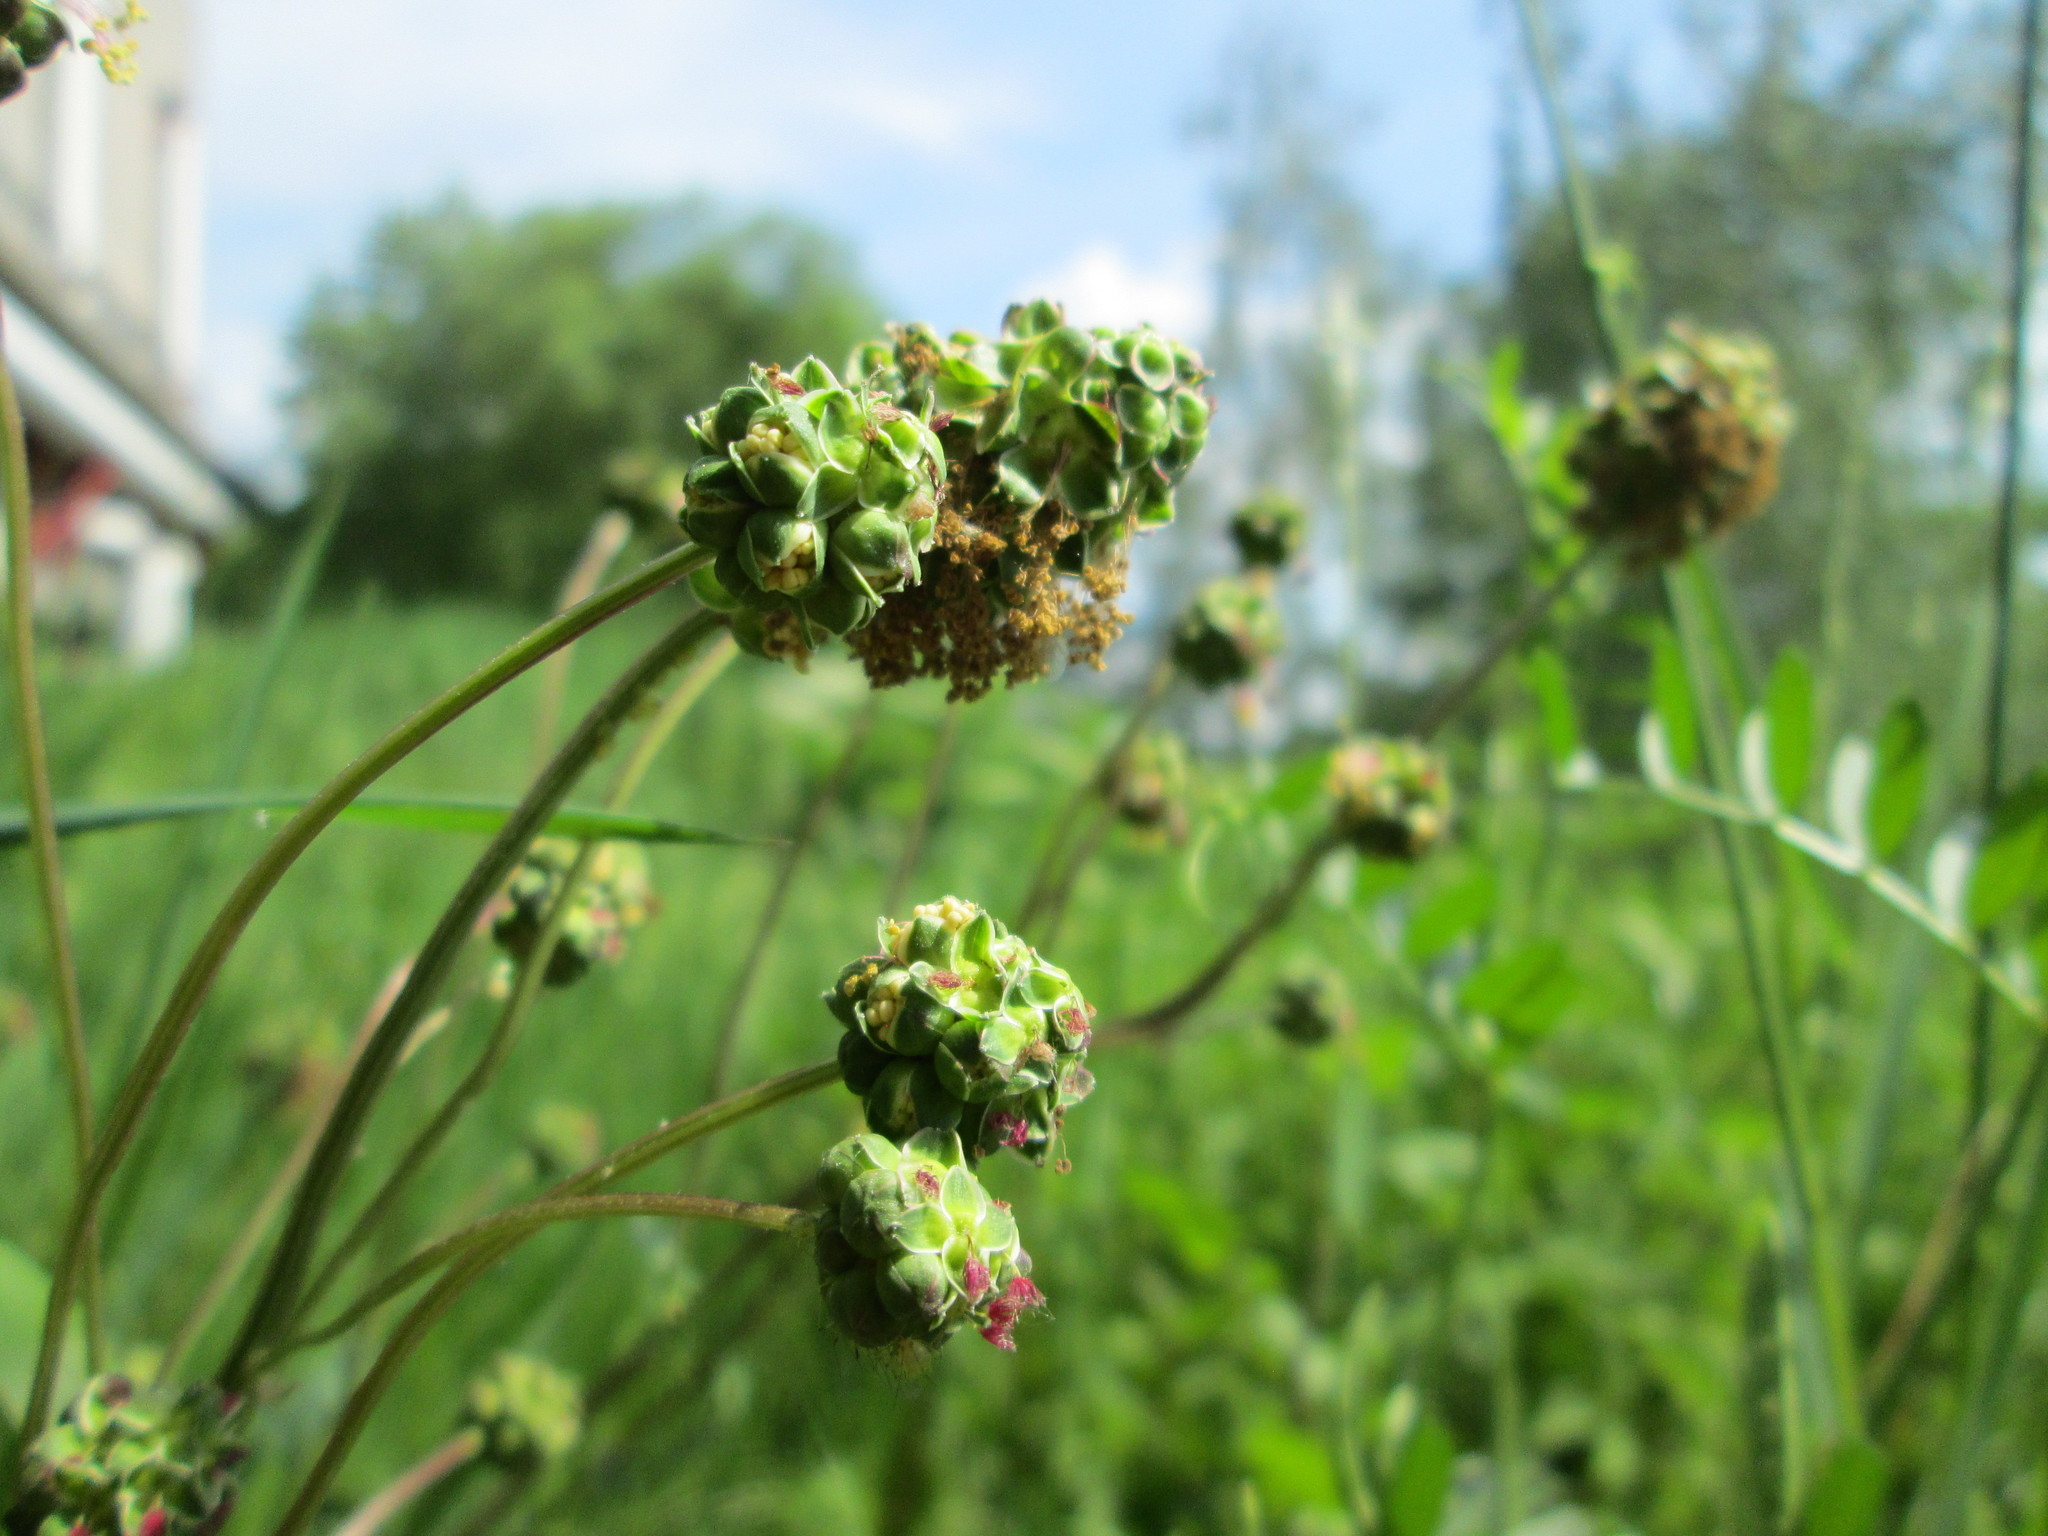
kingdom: Plantae
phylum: Tracheophyta
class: Magnoliopsida
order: Rosales
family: Rosaceae
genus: Poterium
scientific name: Poterium sanguisorba
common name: Salad burnet
